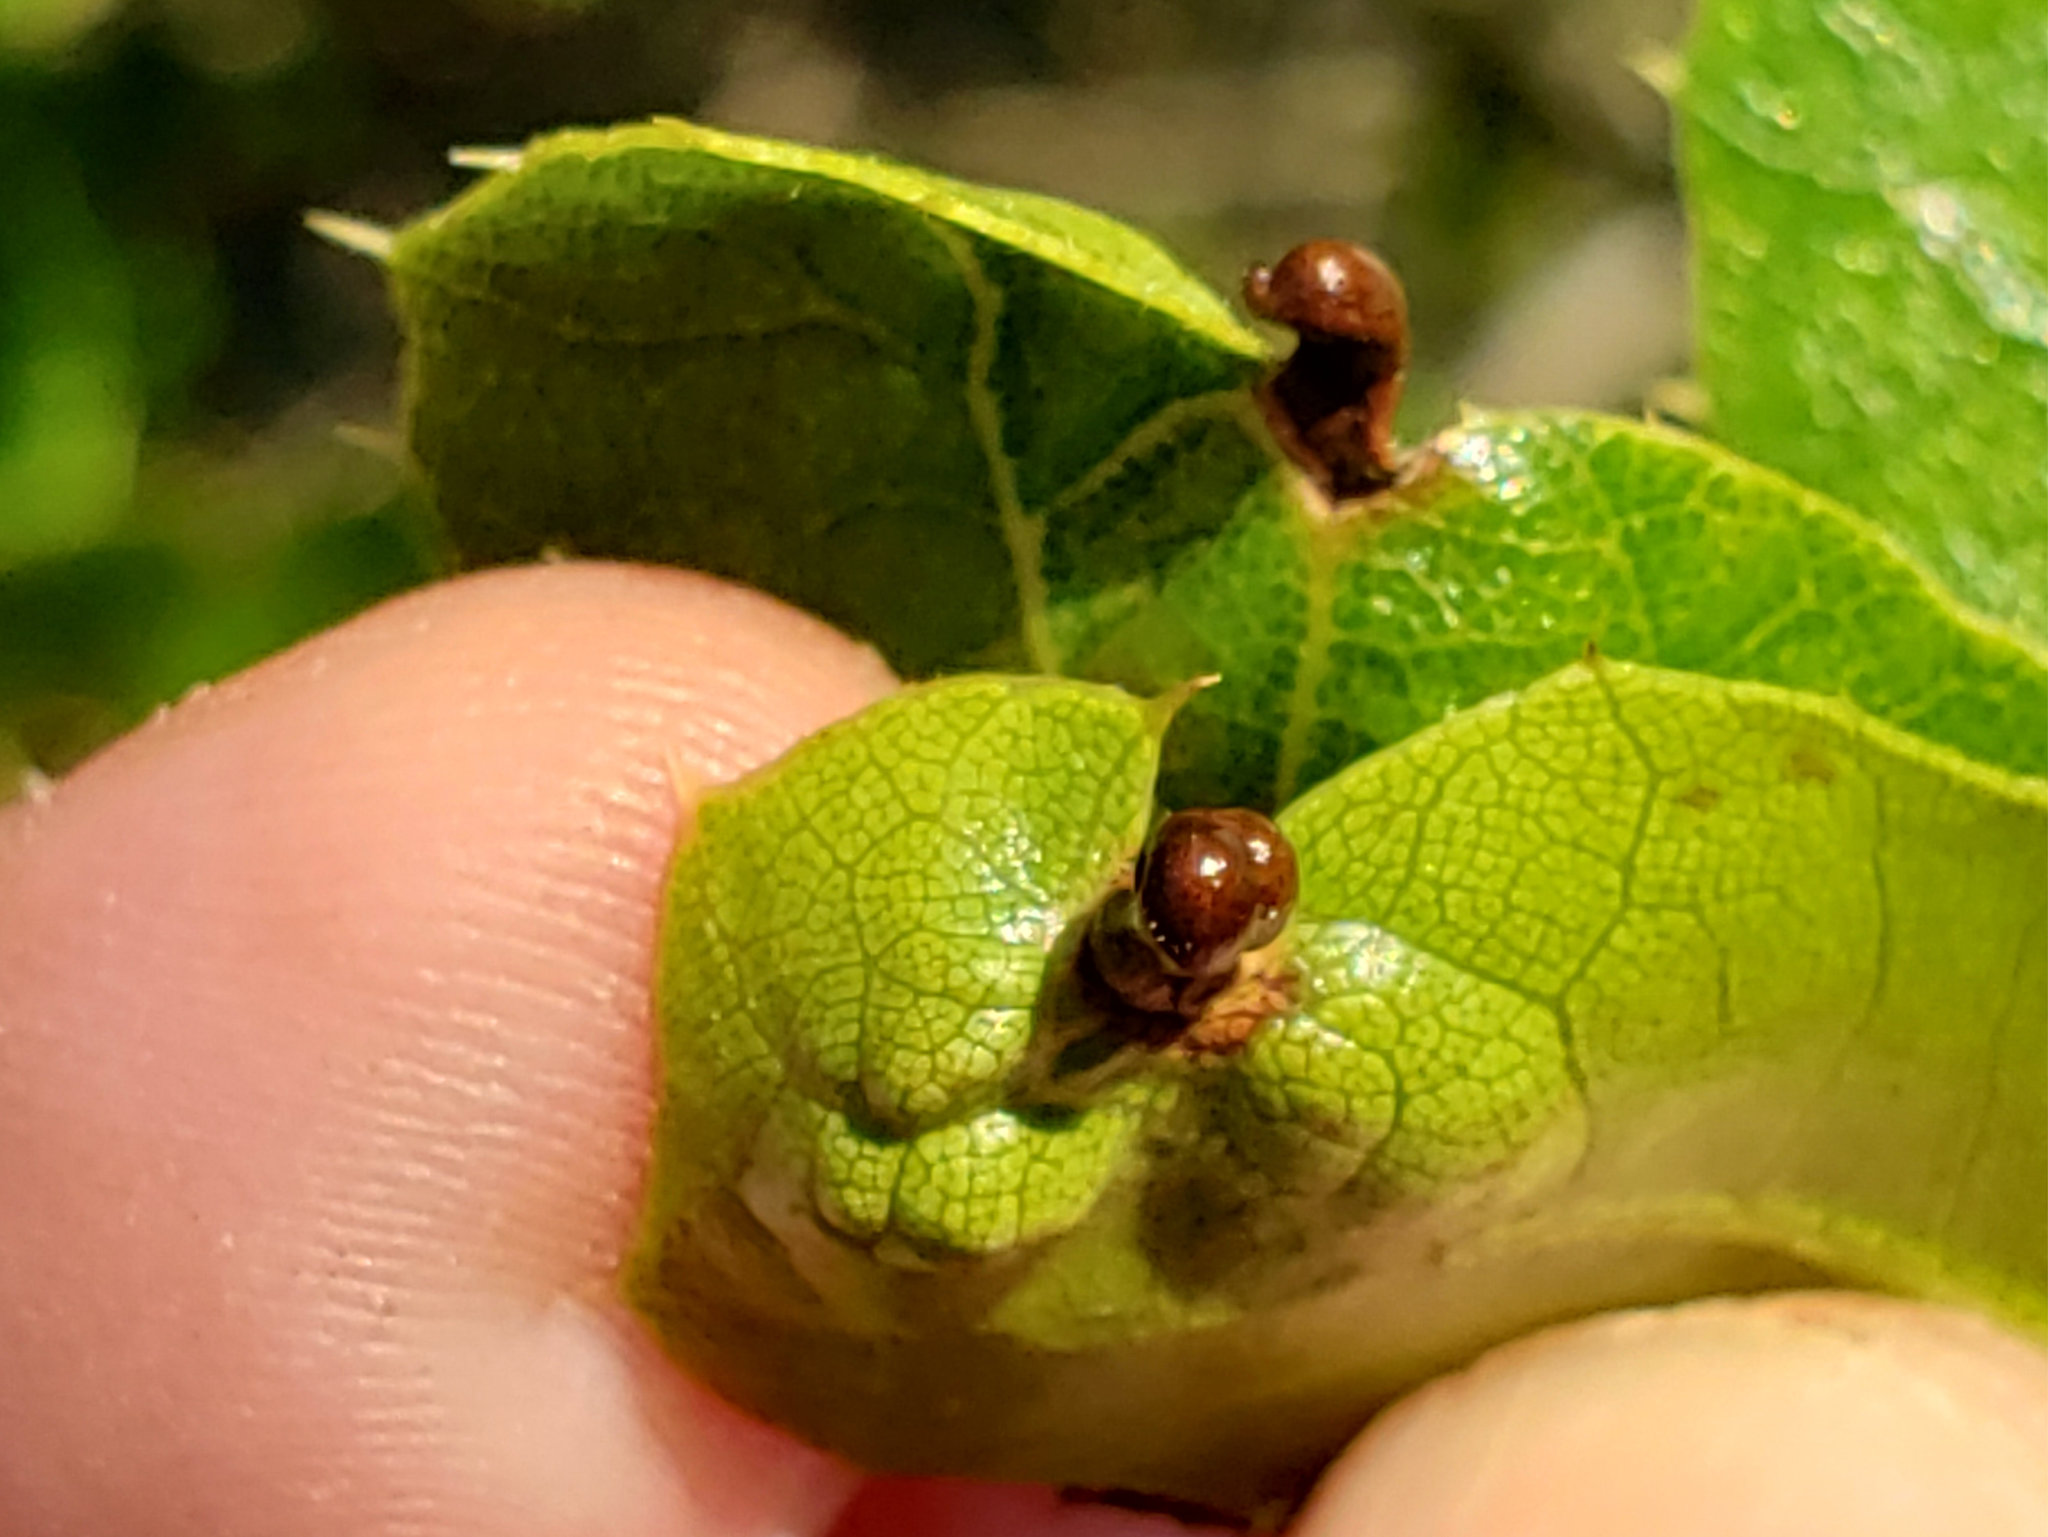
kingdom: Animalia
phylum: Arthropoda
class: Insecta
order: Hymenoptera
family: Cynipidae
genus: Dryocosmus
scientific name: Dryocosmus
